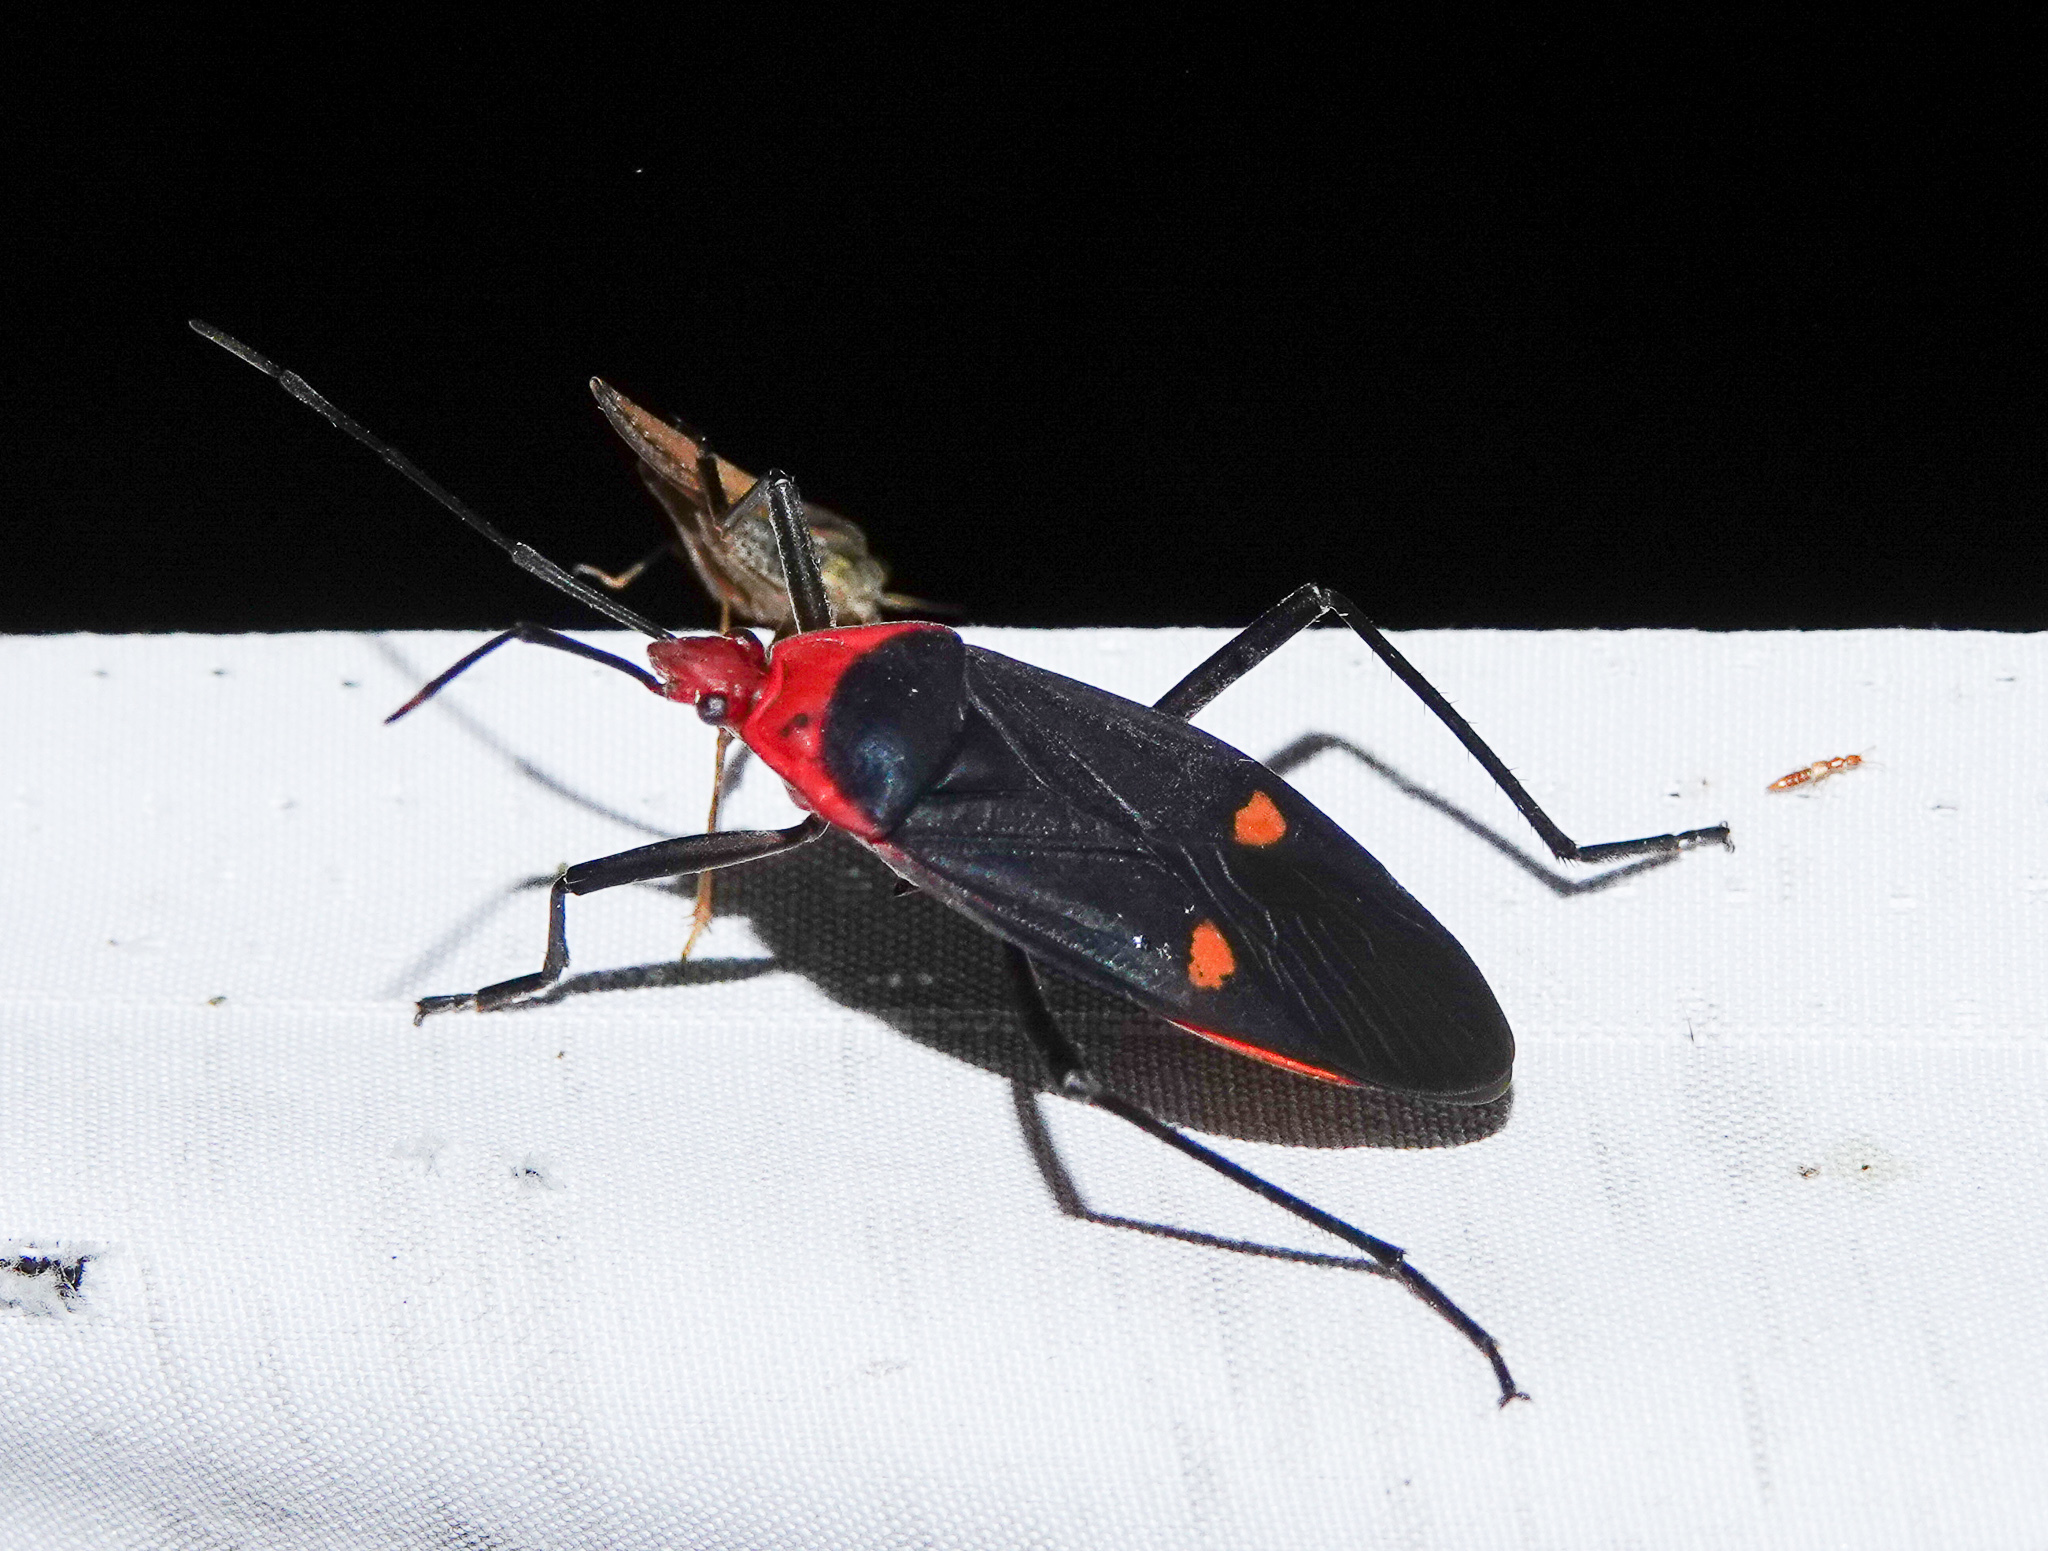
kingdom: Animalia
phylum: Arthropoda
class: Insecta
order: Hemiptera
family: Pyrrhocoridae
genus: Melamphaus
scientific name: Melamphaus faber
